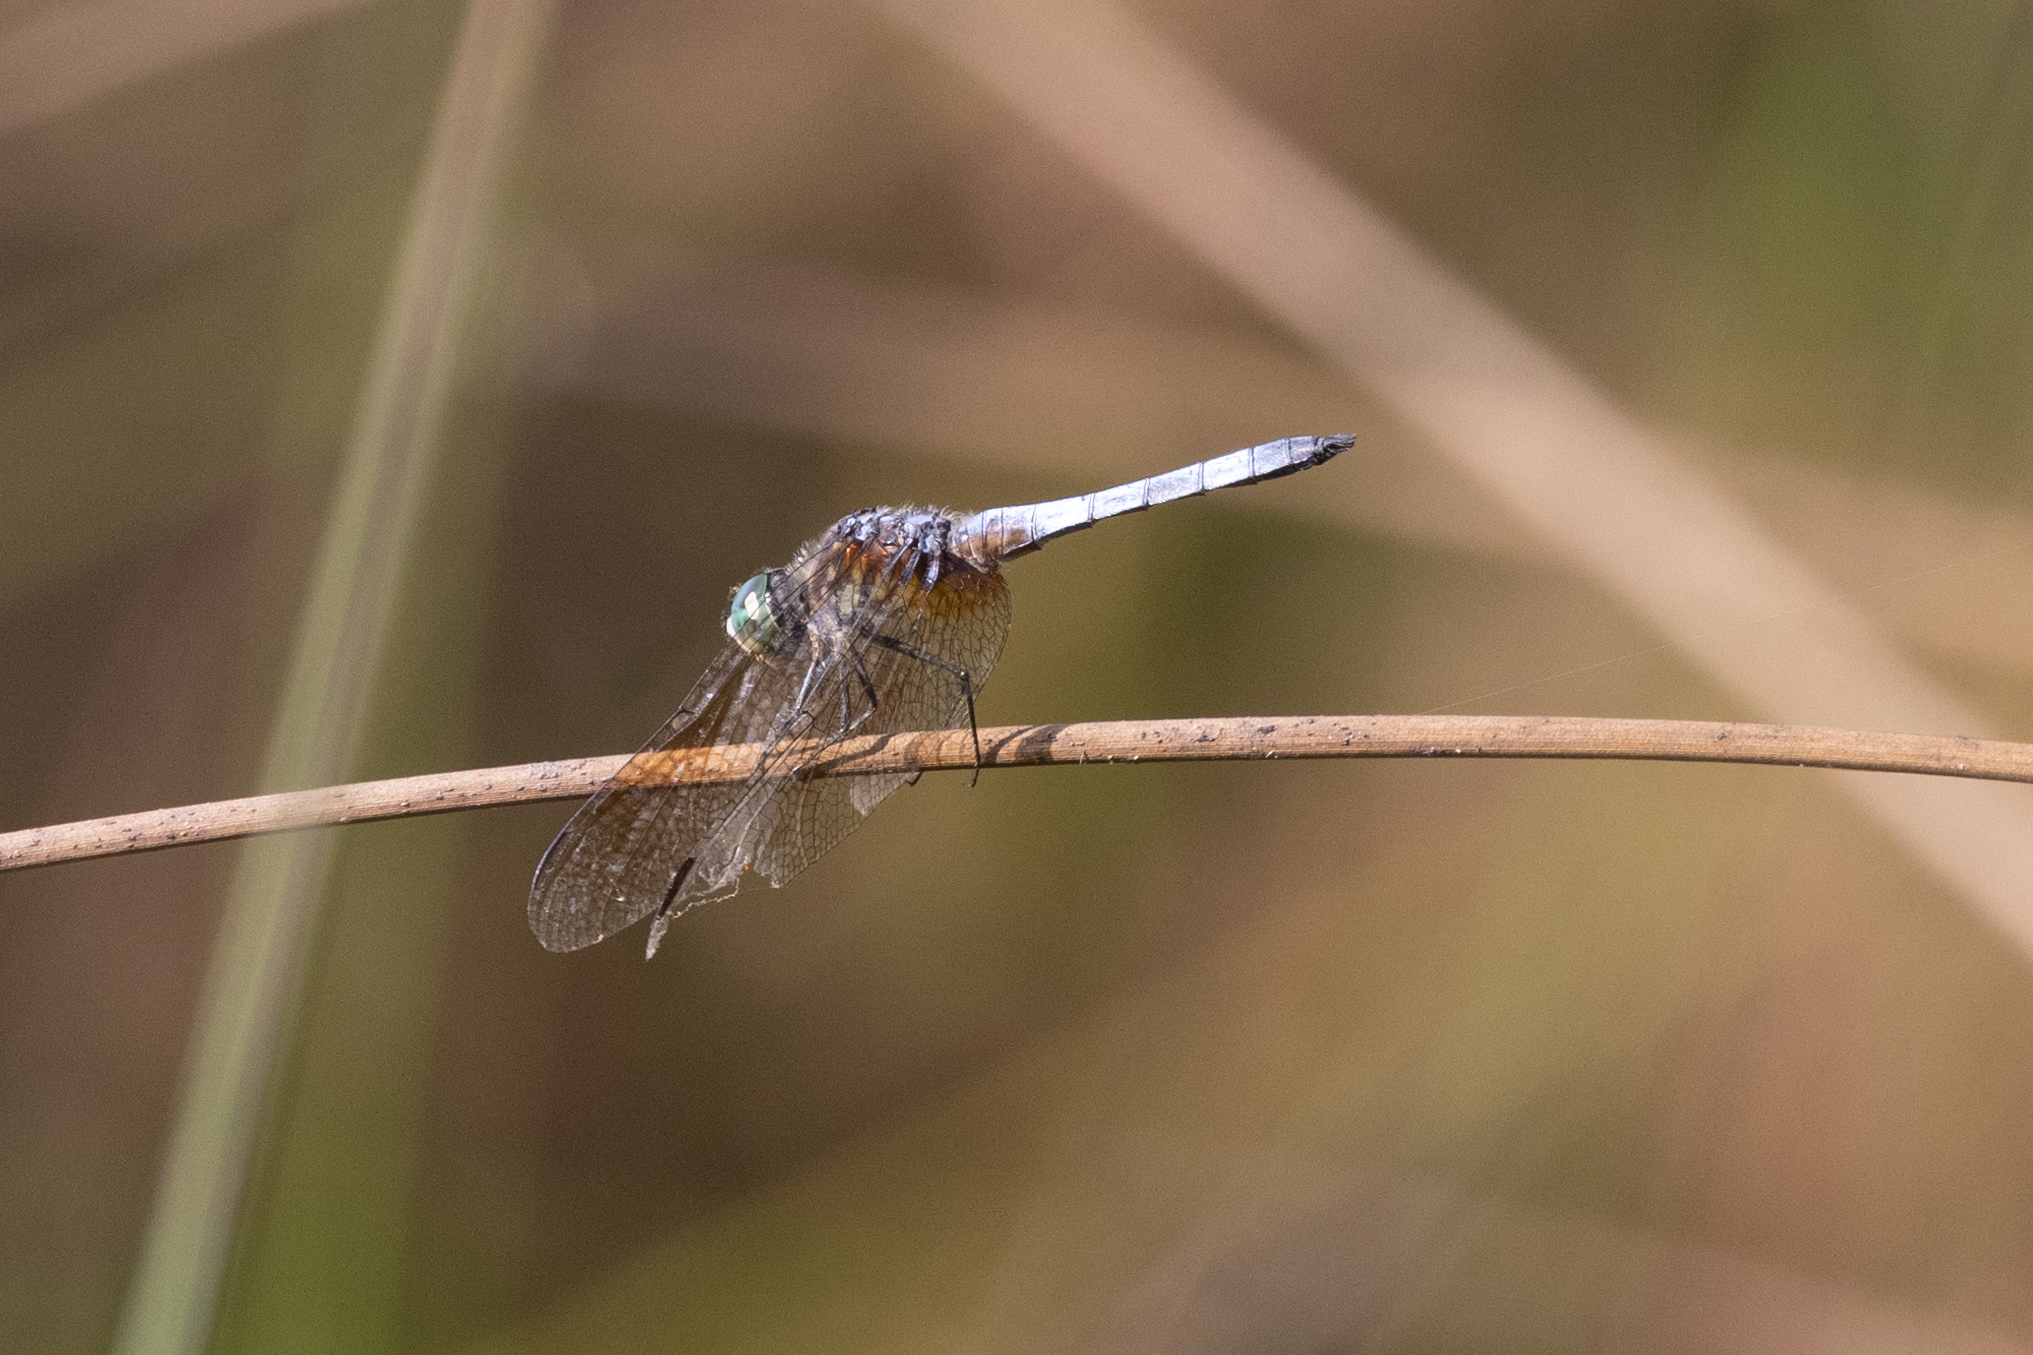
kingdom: Animalia
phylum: Arthropoda
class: Insecta
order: Odonata
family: Libellulidae
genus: Pachydiplax
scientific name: Pachydiplax longipennis
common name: Blue dasher
